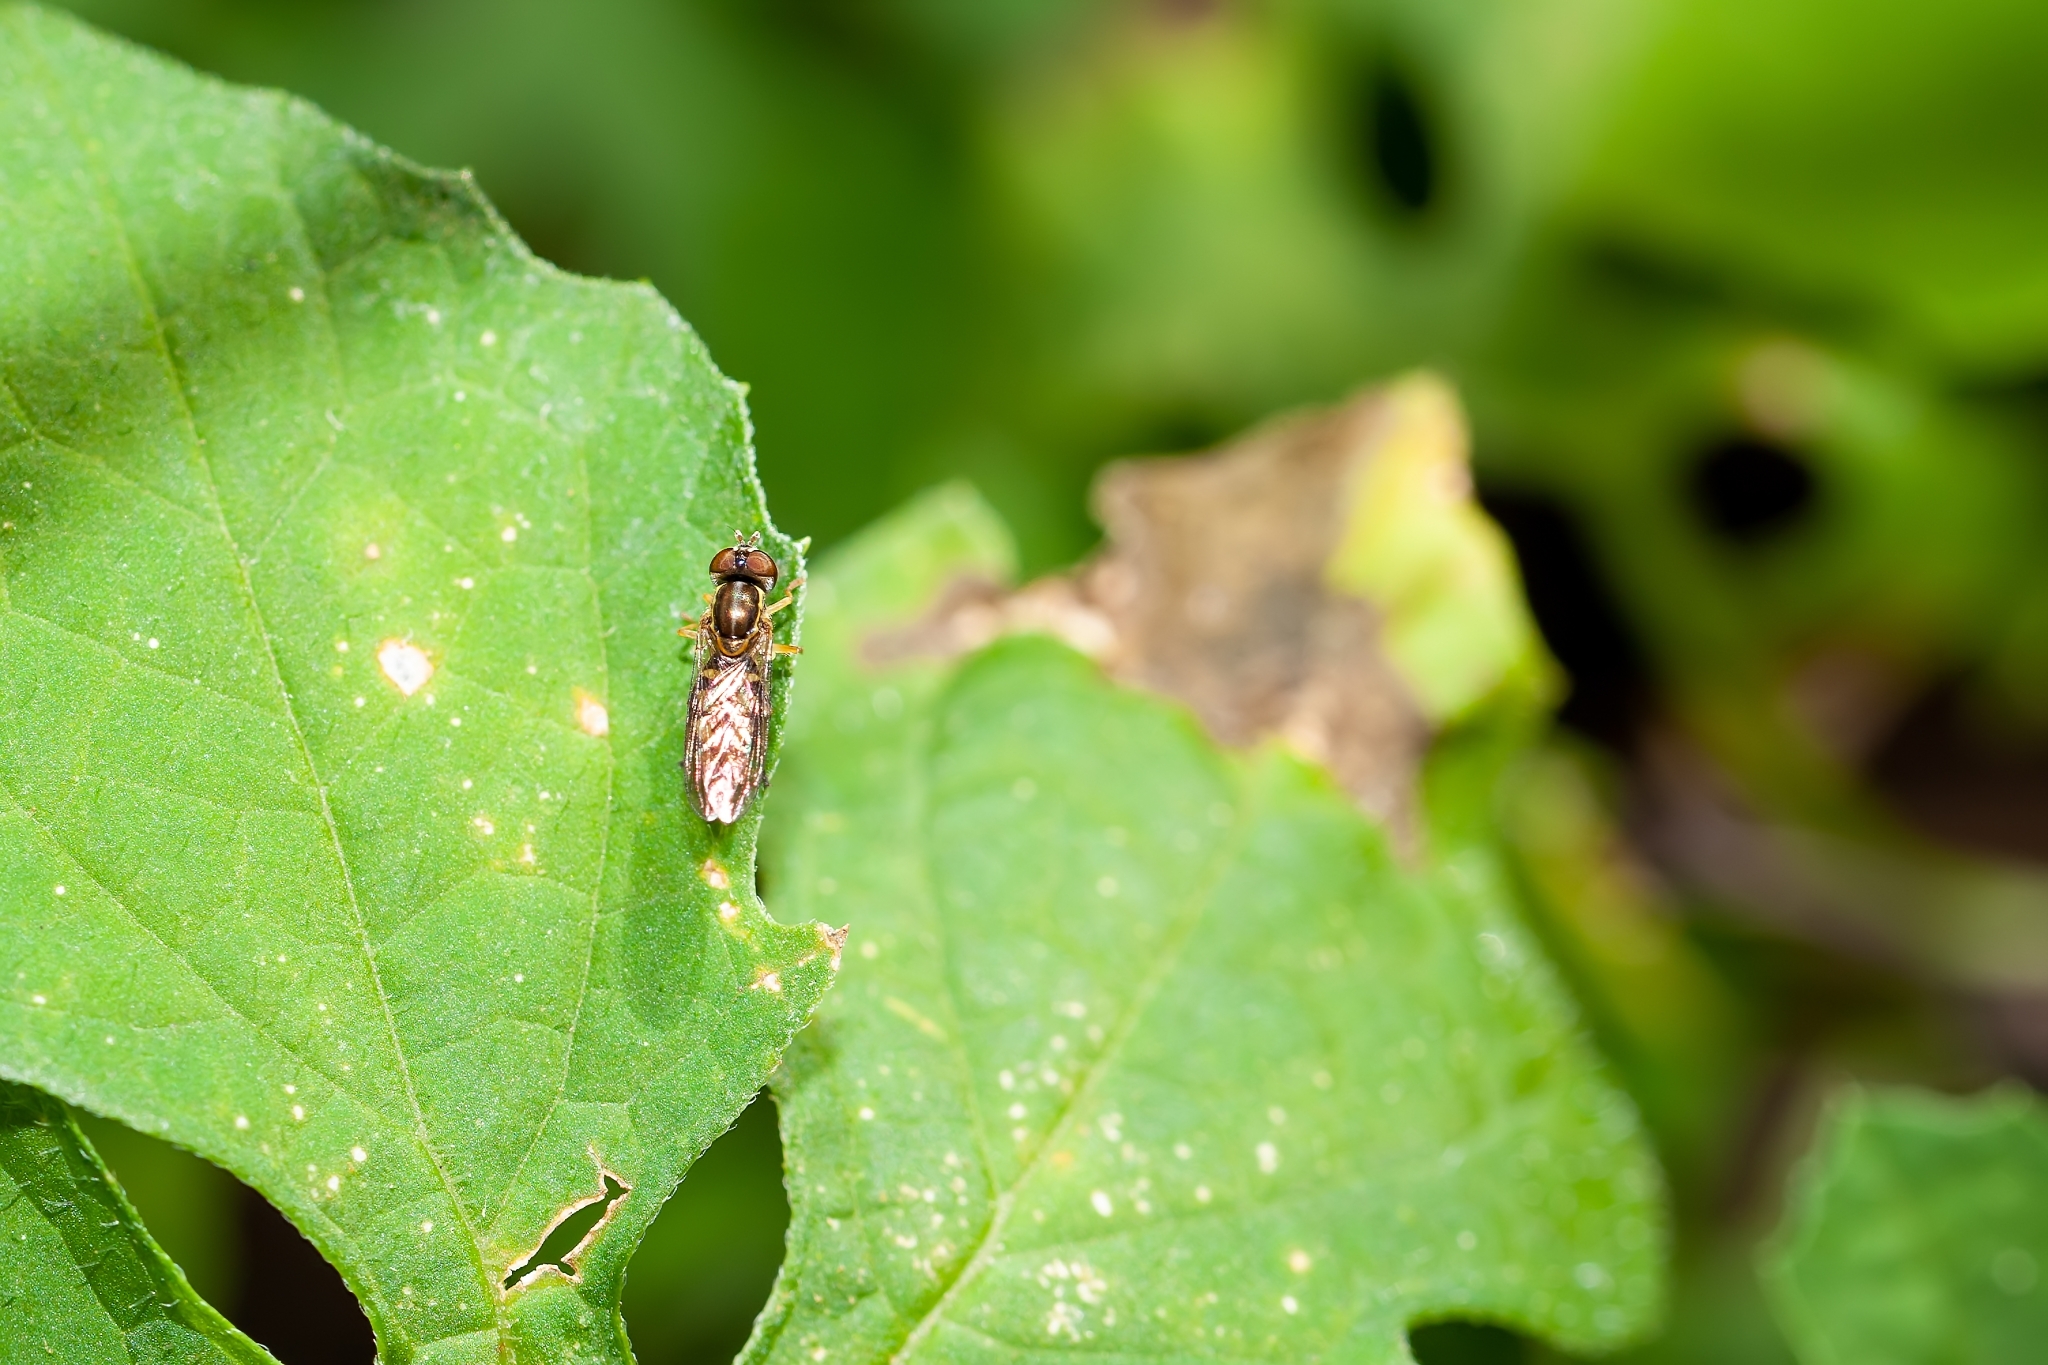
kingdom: Animalia
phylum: Arthropoda
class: Insecta
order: Diptera
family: Syrphidae
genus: Toxomerus
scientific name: Toxomerus floralis
